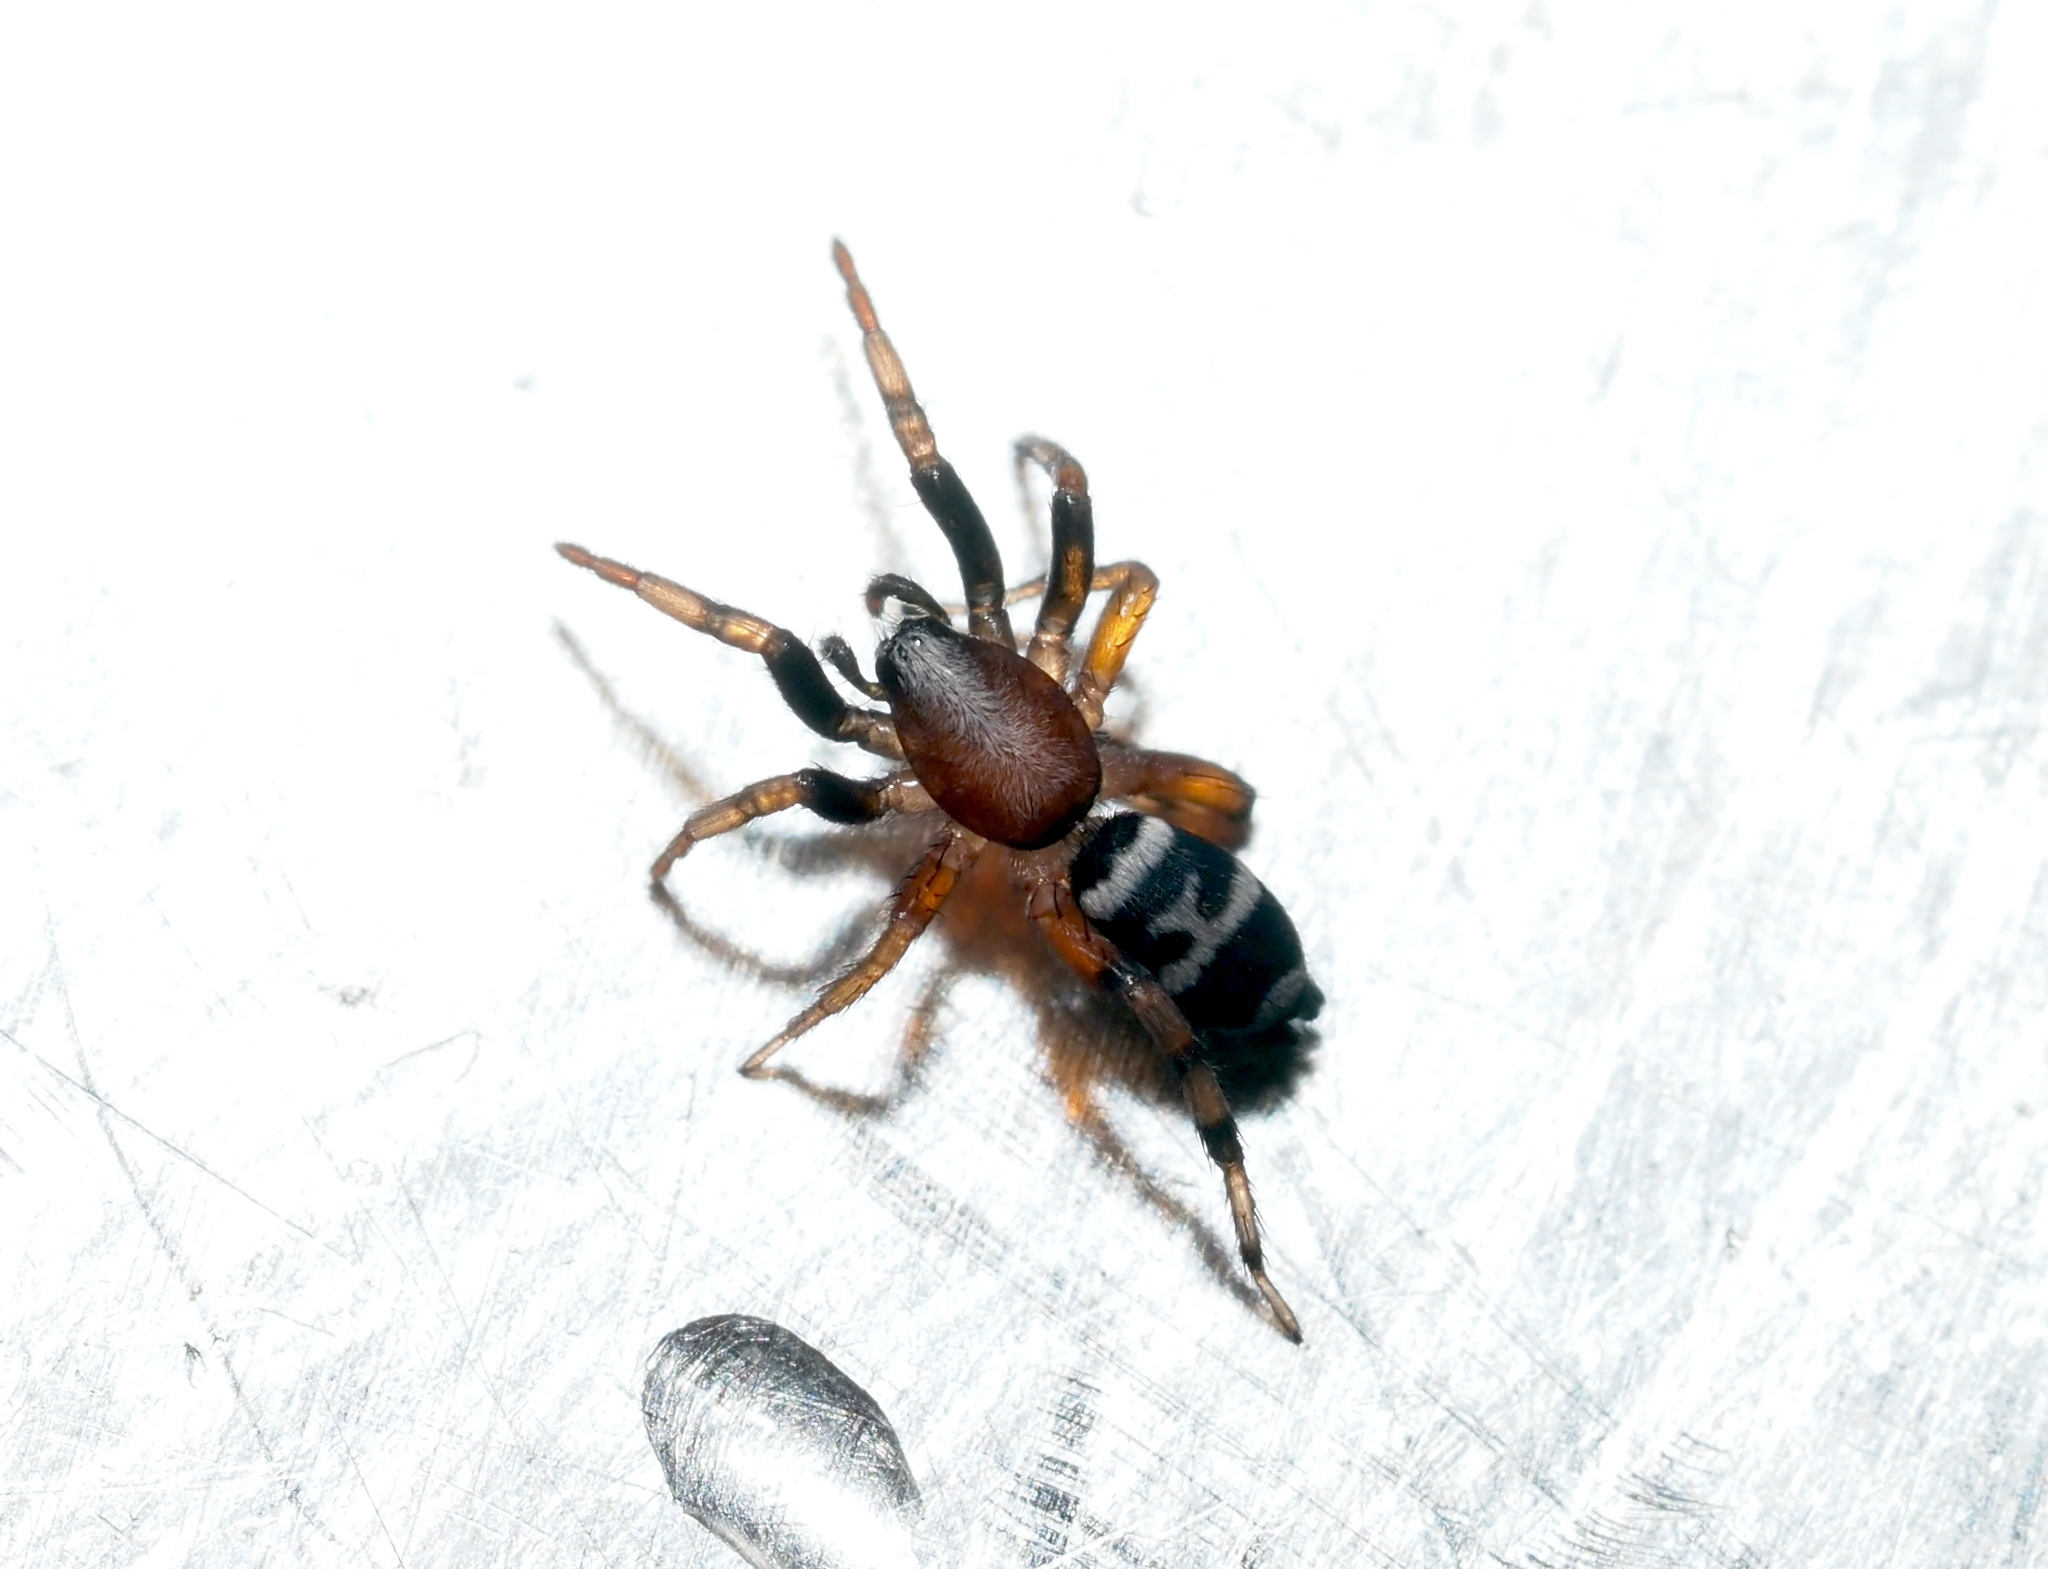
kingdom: Animalia
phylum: Arthropoda
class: Arachnida
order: Araneae
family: Gnaphosidae
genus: Sergiolus
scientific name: Sergiolus capulatus
